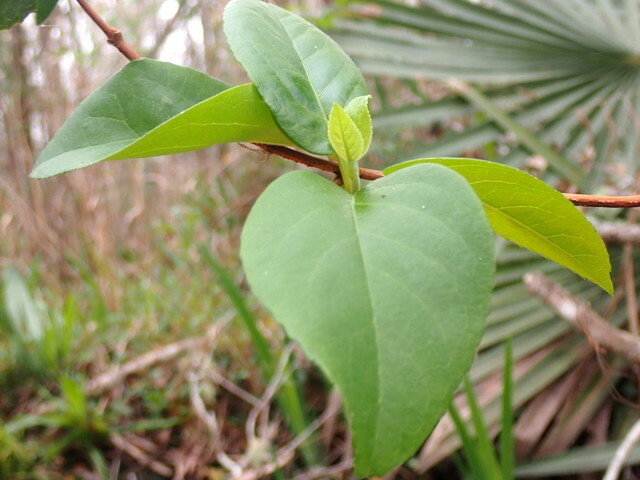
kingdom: Plantae
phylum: Tracheophyta
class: Magnoliopsida
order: Cornales
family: Hydrangeaceae
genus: Hydrangea
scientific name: Hydrangea barbara
